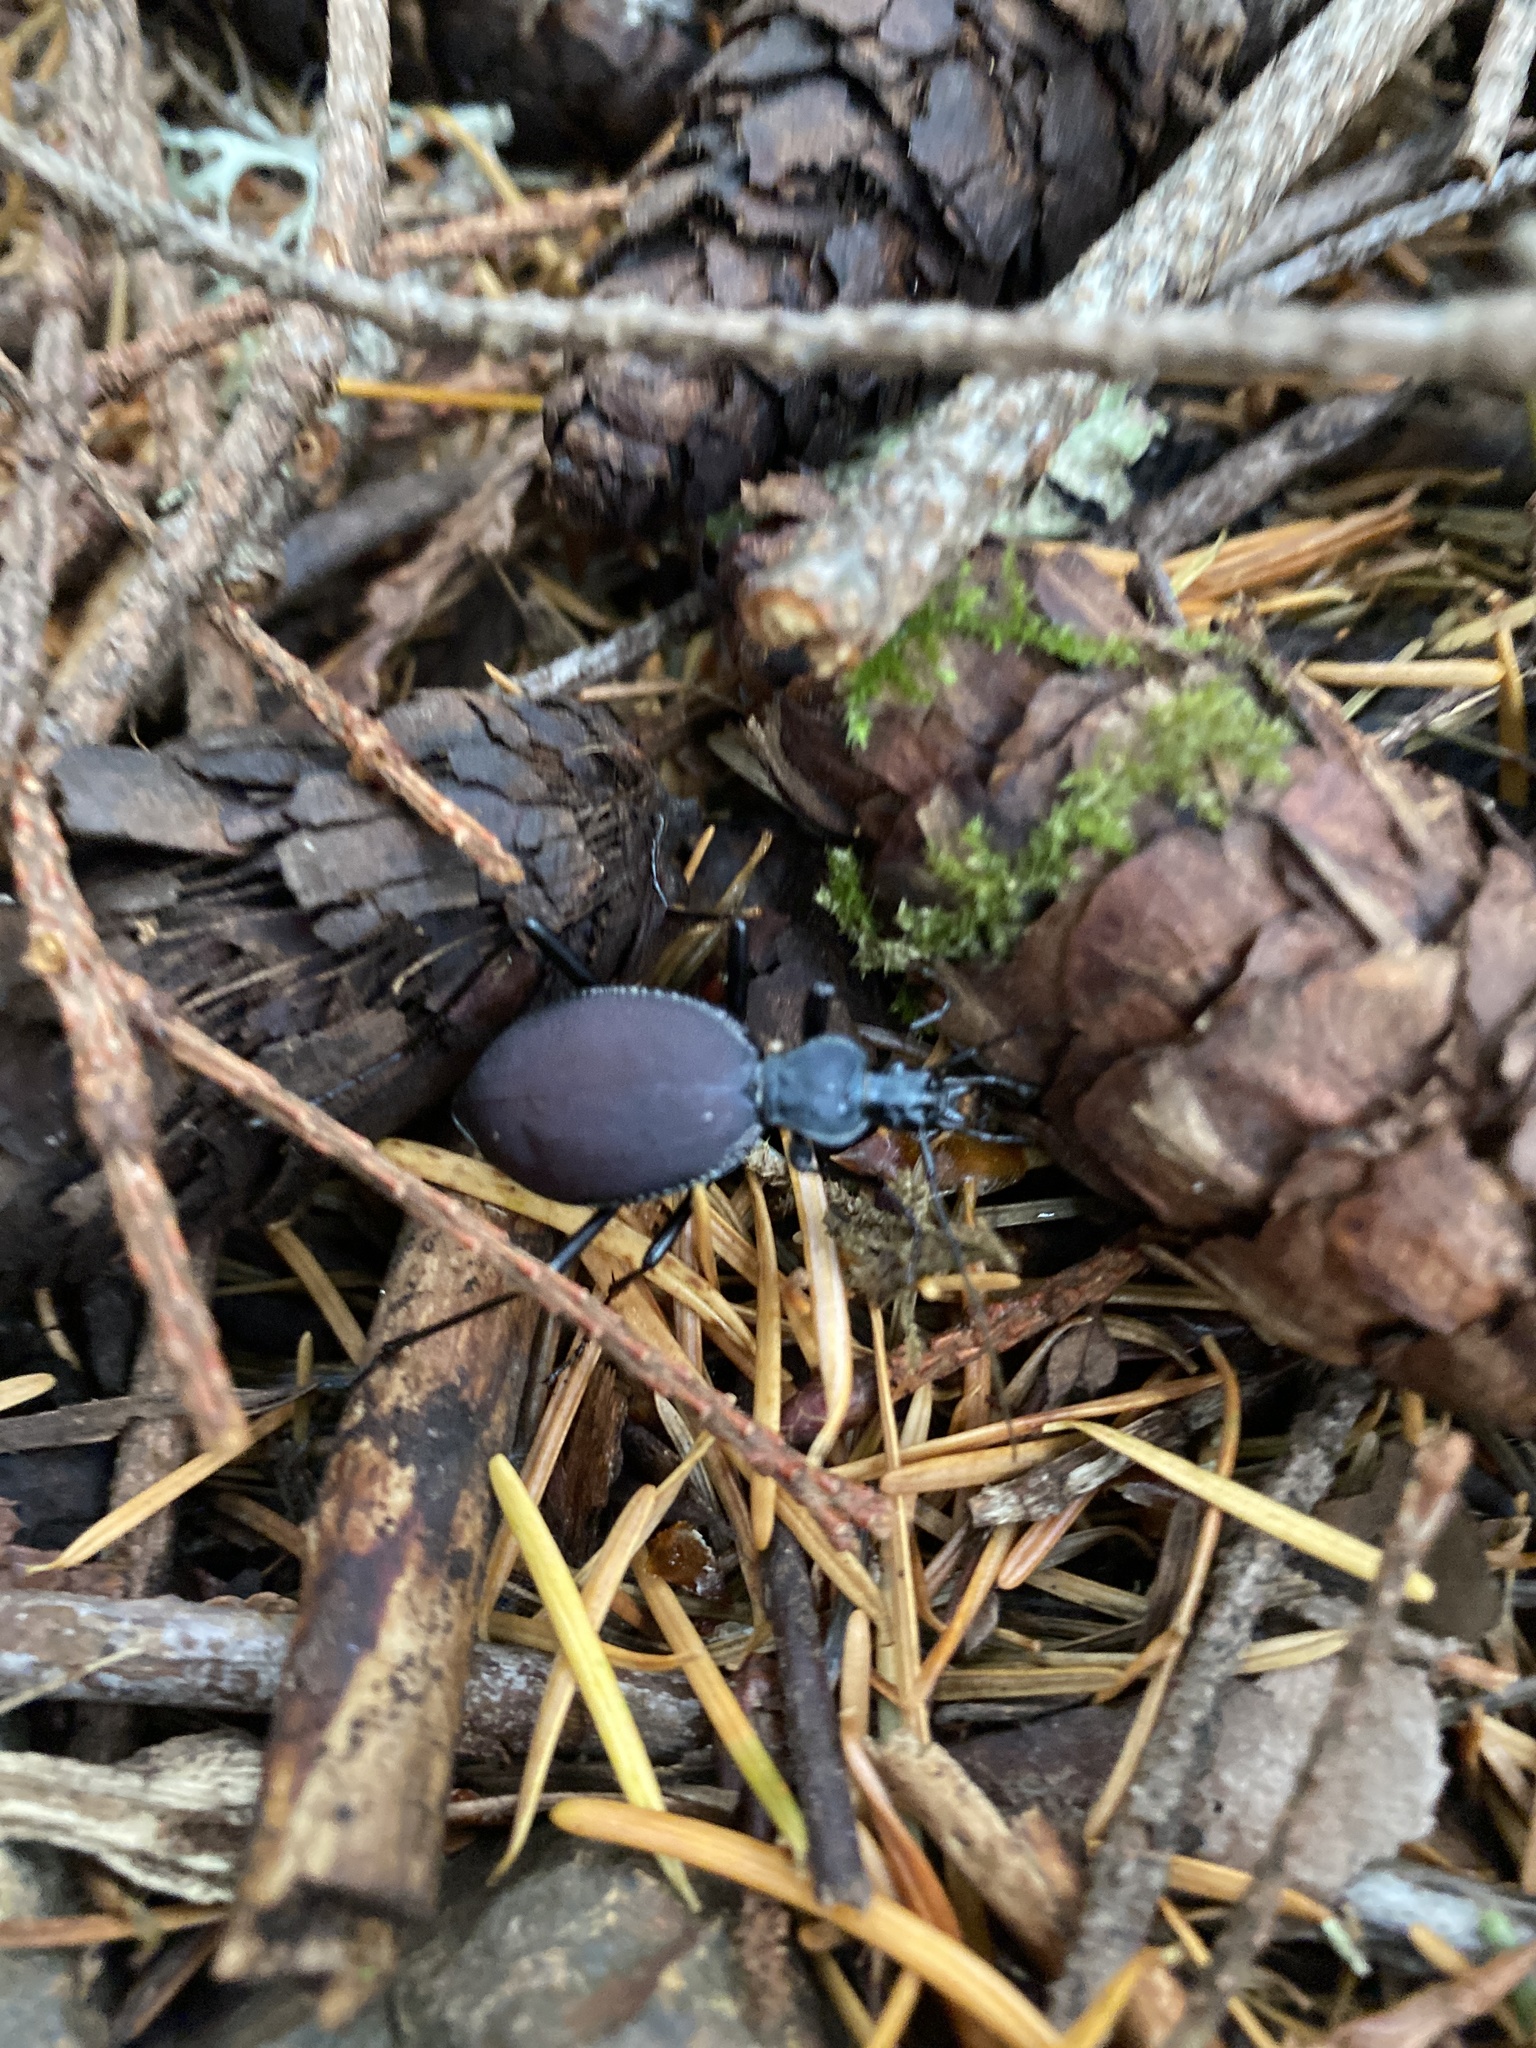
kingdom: Animalia
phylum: Arthropoda
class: Insecta
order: Coleoptera
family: Carabidae
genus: Scaphinotus
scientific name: Scaphinotus angusticollis
